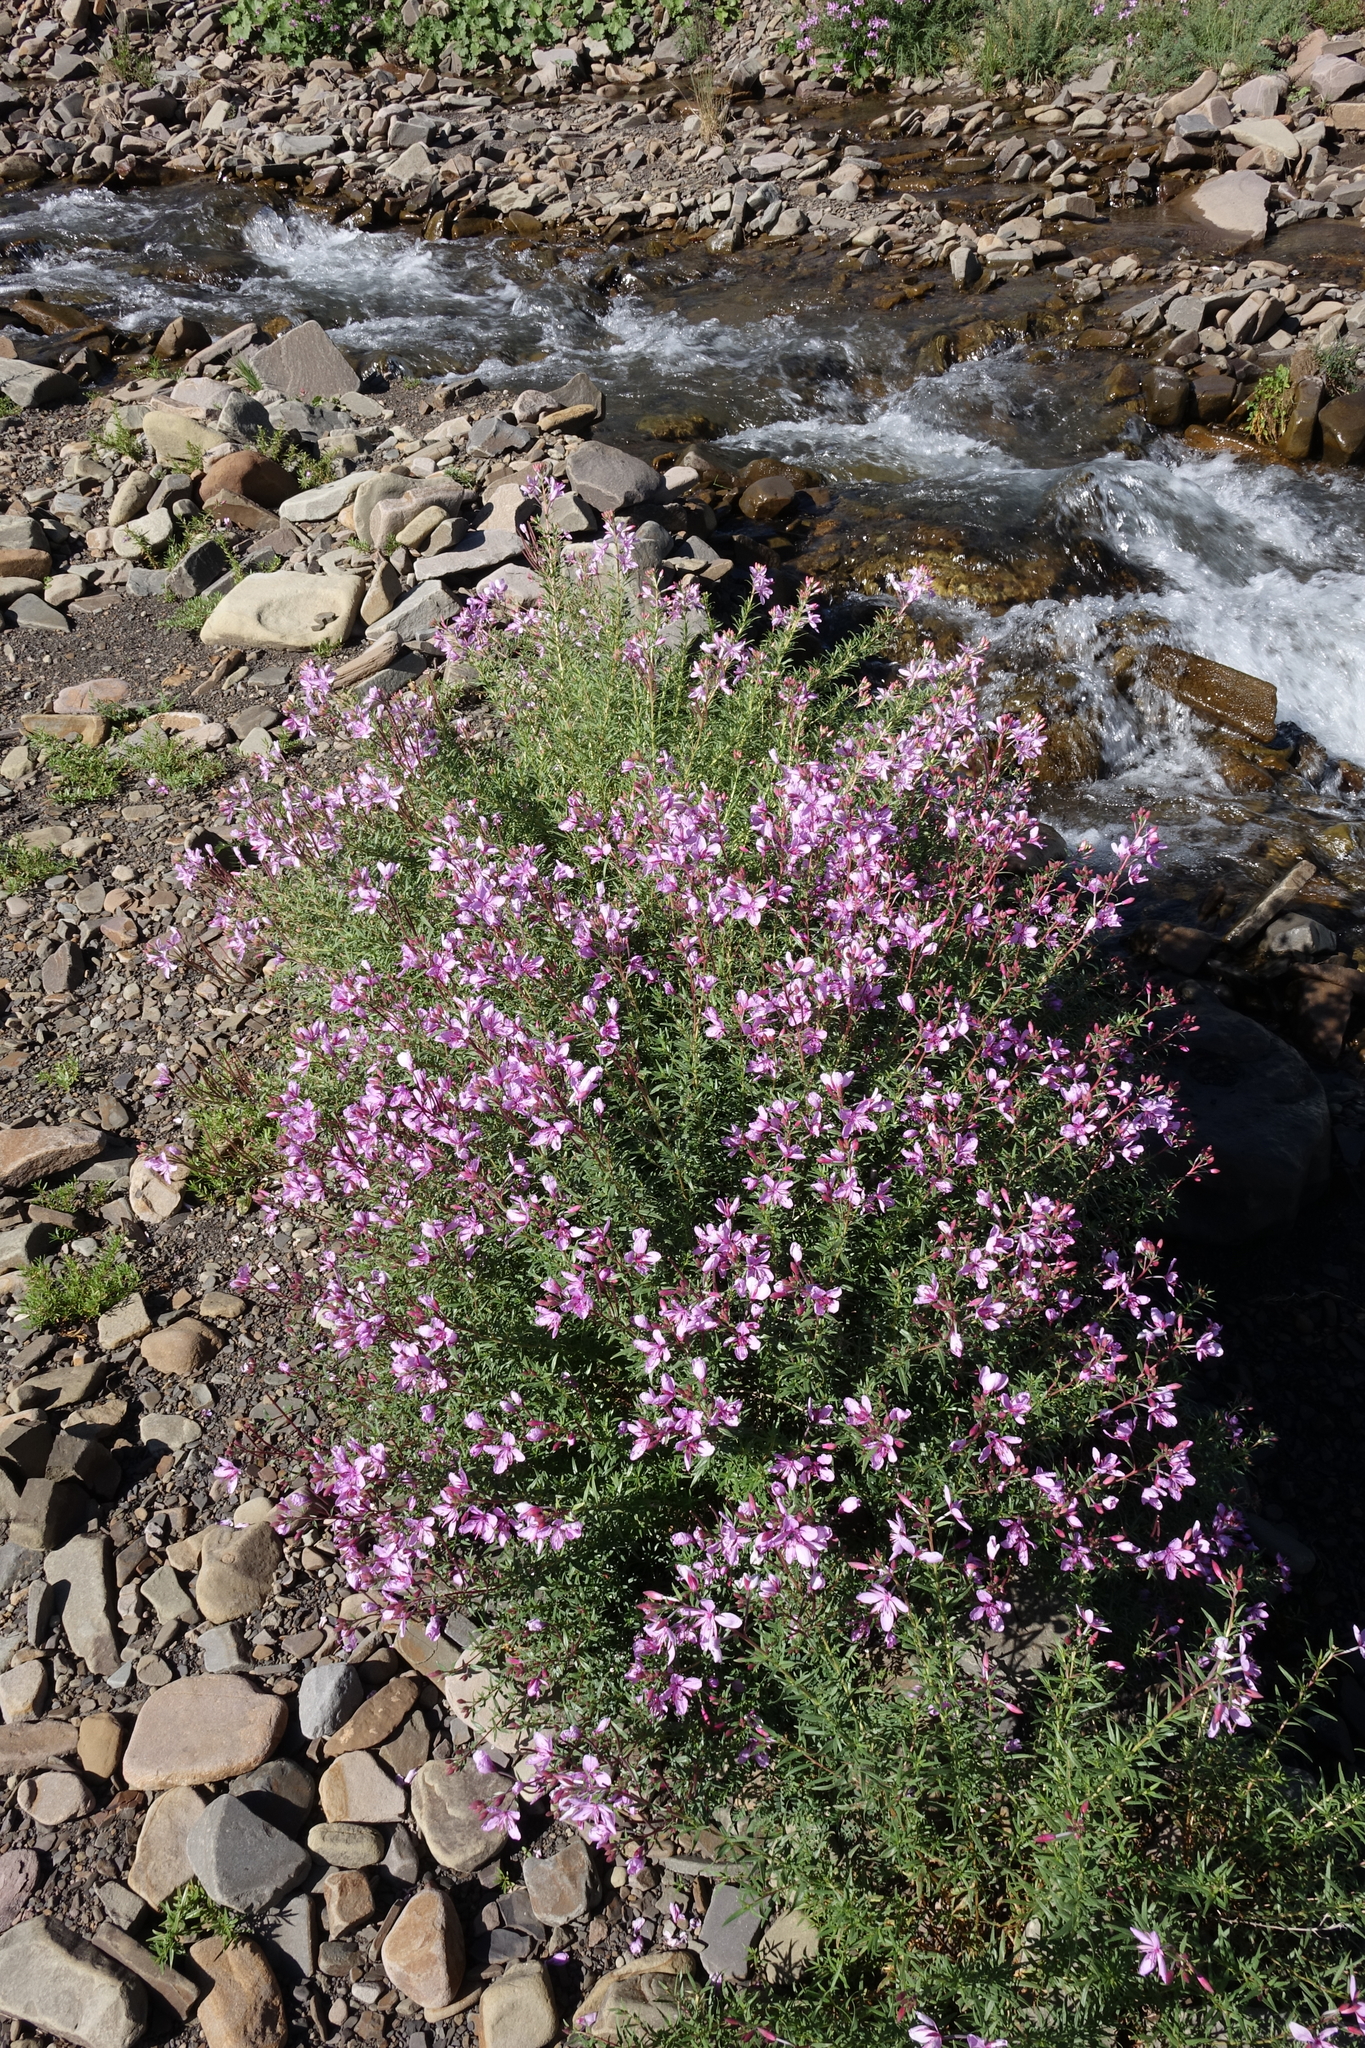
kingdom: Plantae
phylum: Tracheophyta
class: Magnoliopsida
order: Myrtales
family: Onagraceae
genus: Chamaenerion
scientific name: Chamaenerion colchicum
